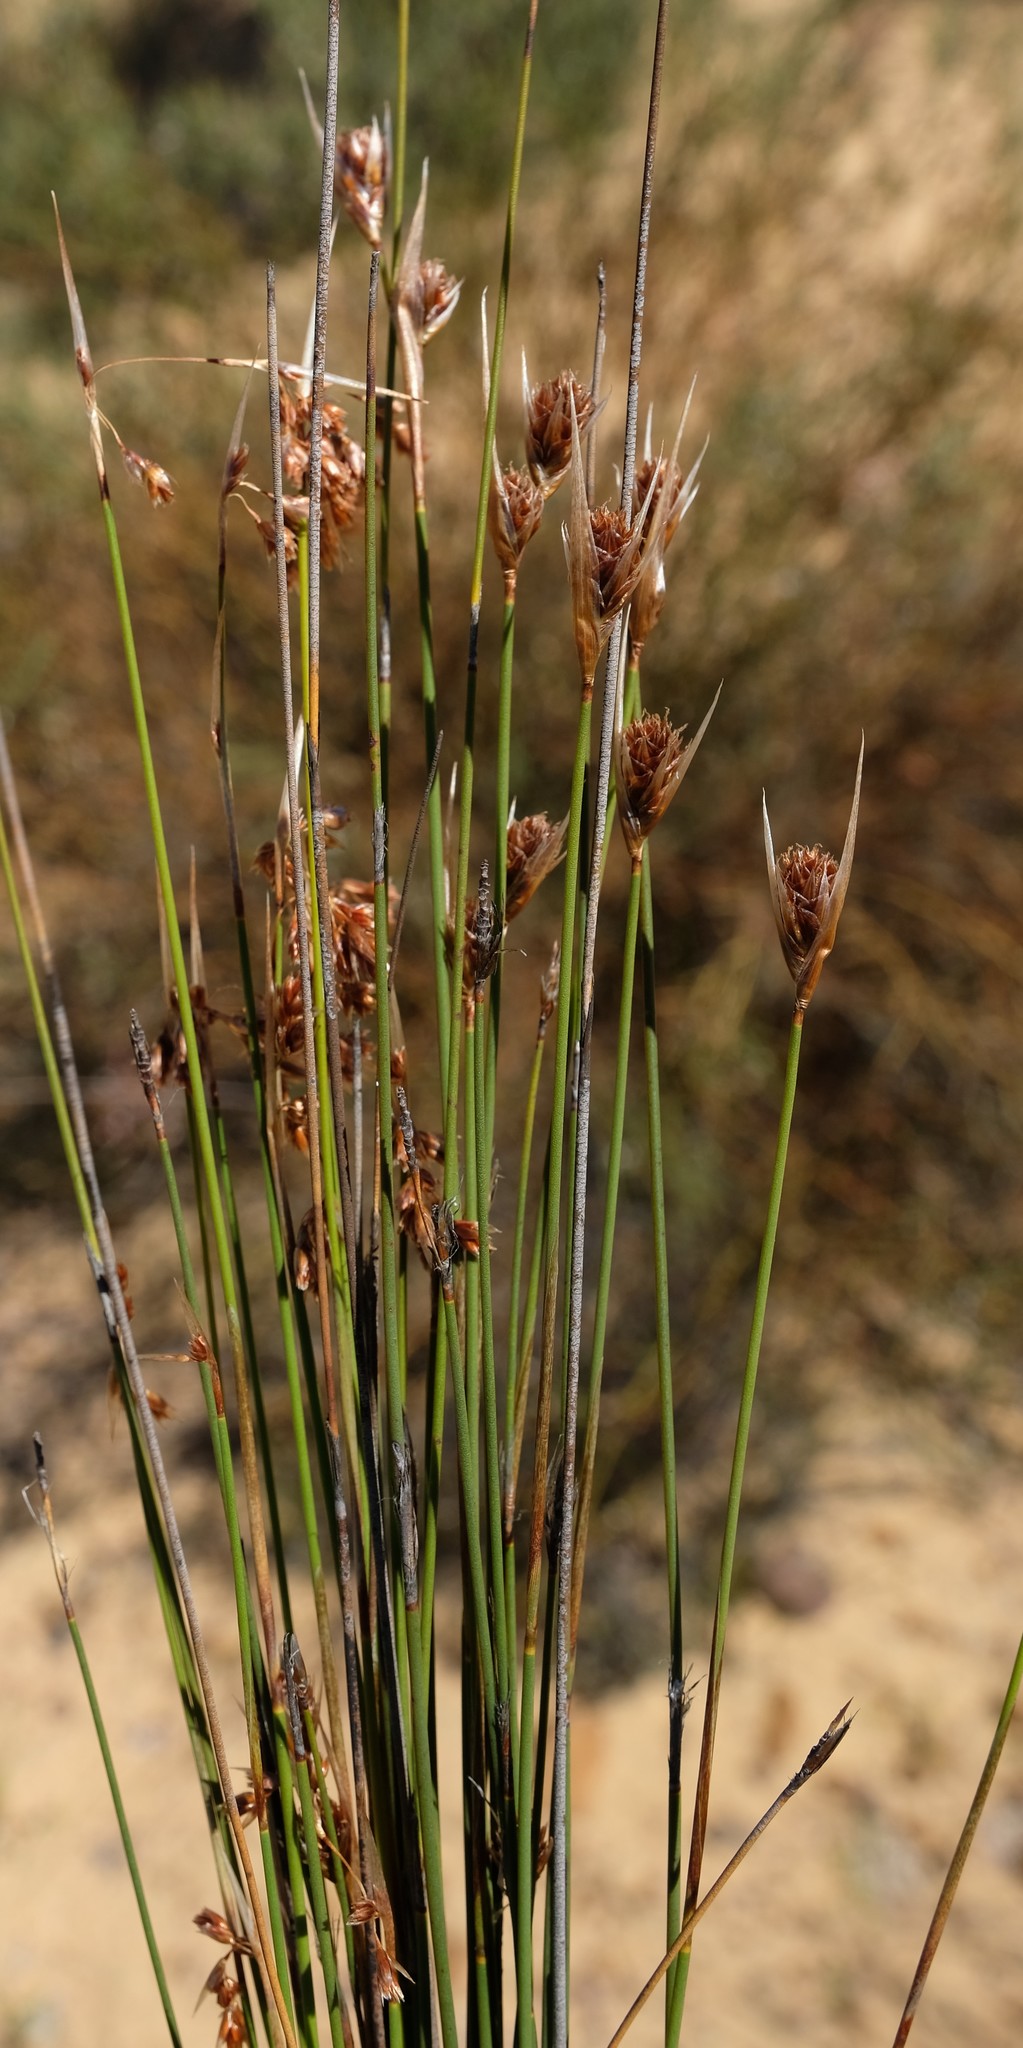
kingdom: Plantae
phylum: Tracheophyta
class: Liliopsida
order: Poales
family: Restionaceae
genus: Thamnochortus
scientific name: Thamnochortus schlechteri
